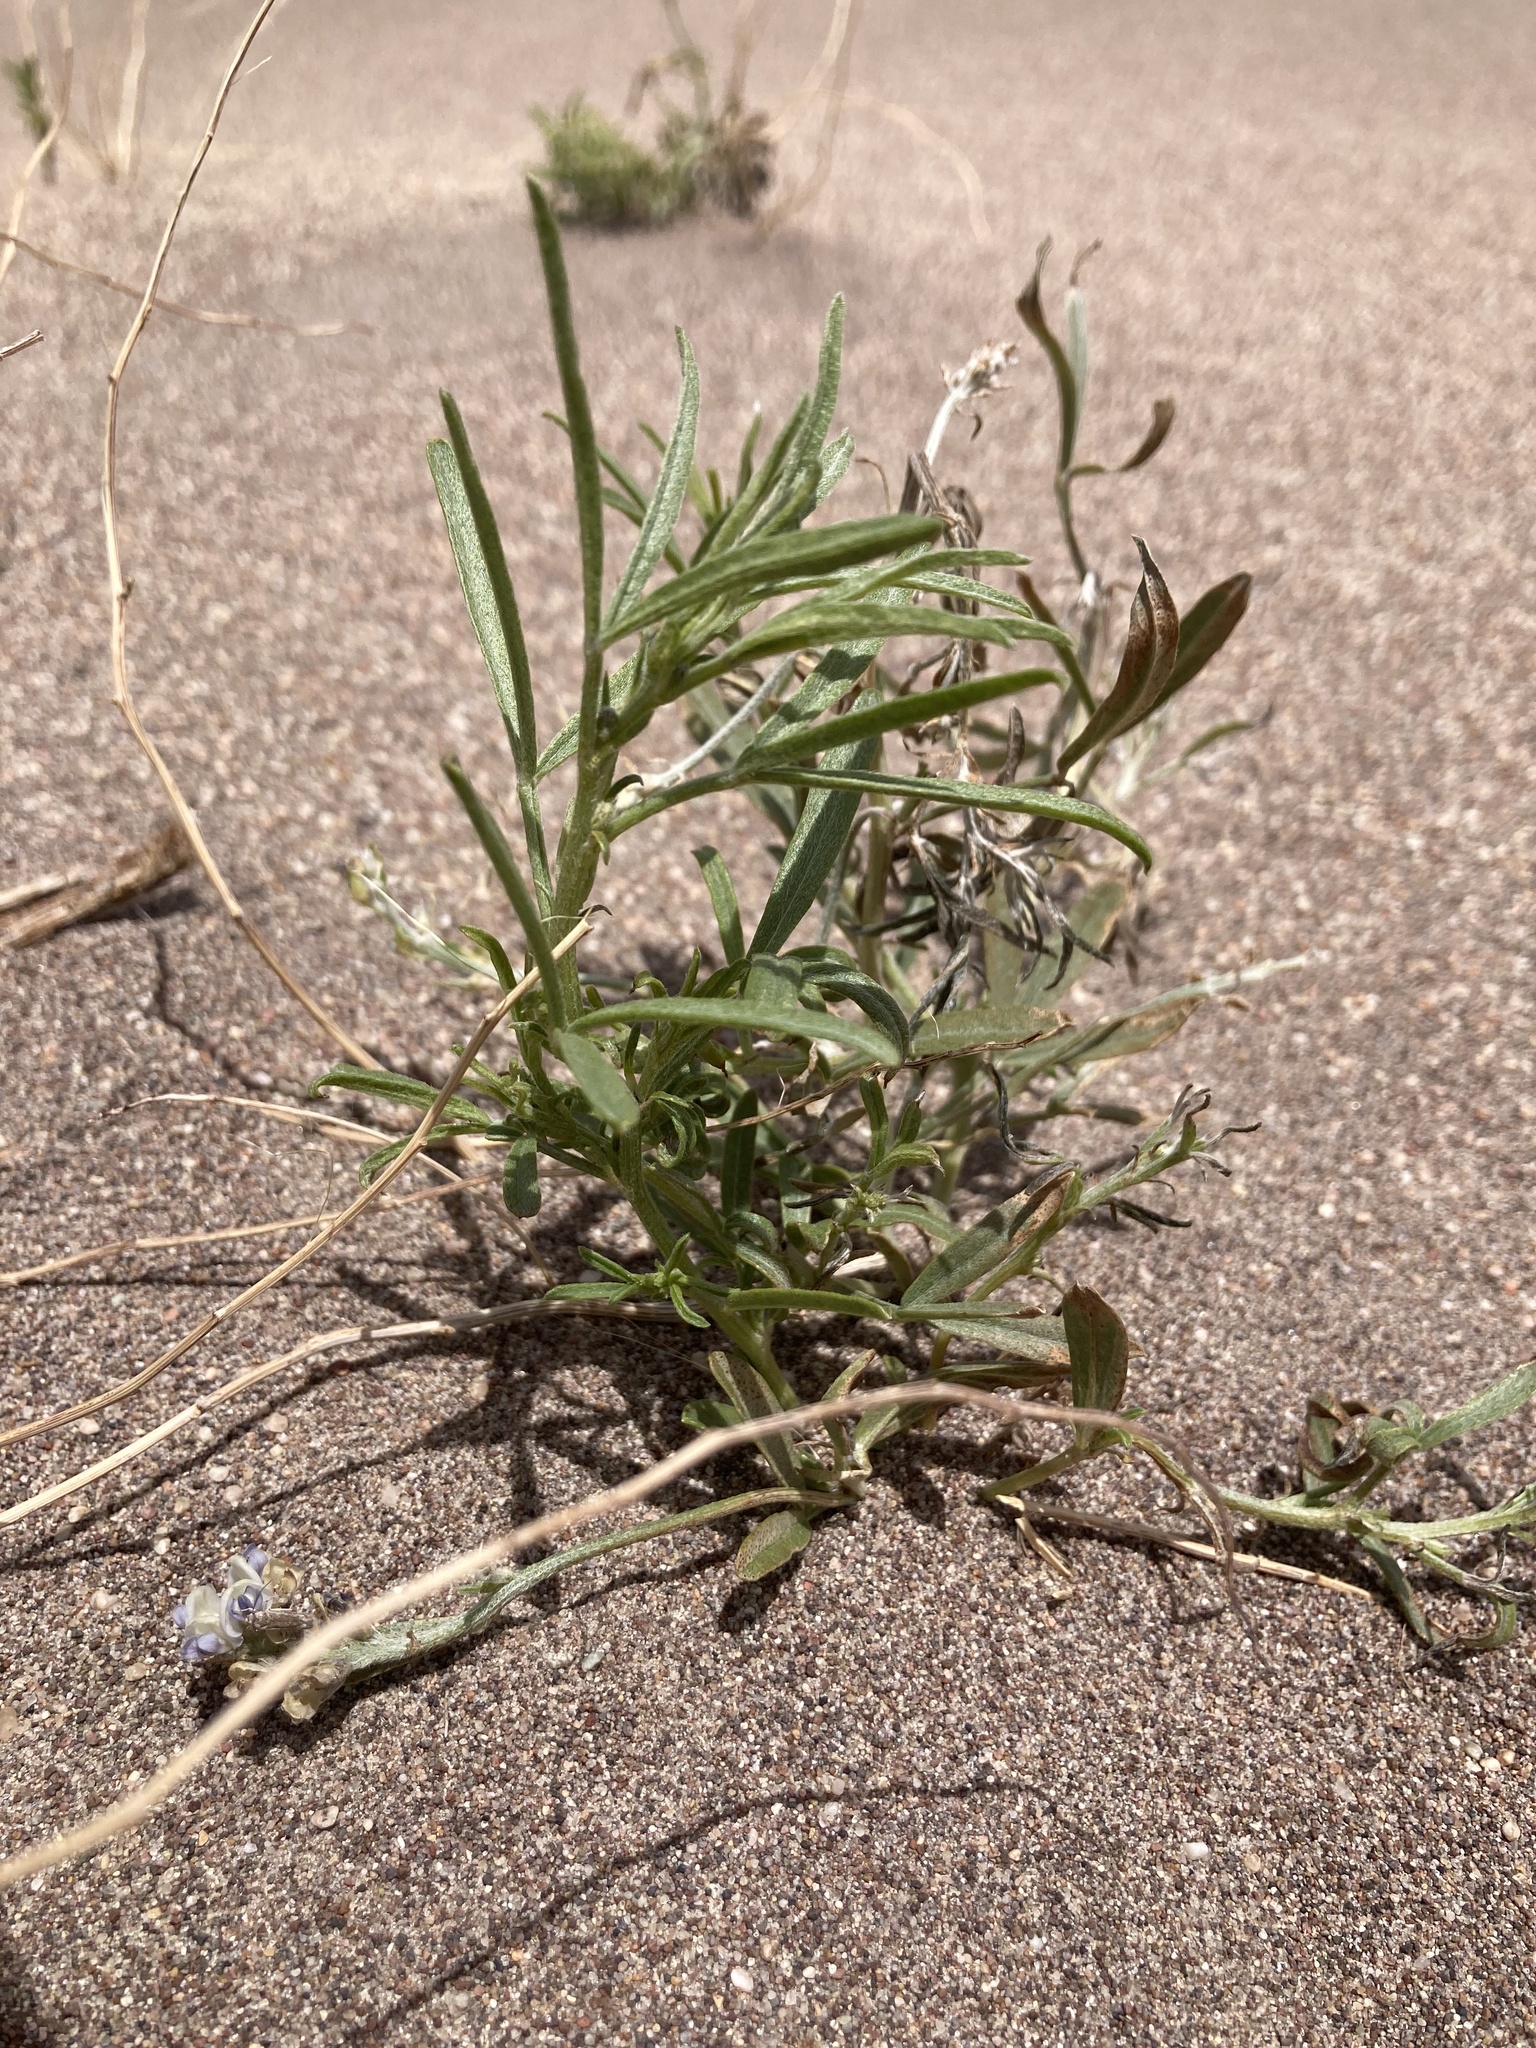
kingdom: Plantae
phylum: Tracheophyta
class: Magnoliopsida
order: Fabales
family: Fabaceae
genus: Ladeania
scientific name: Ladeania lanceolata
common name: Dune scurf-pea
